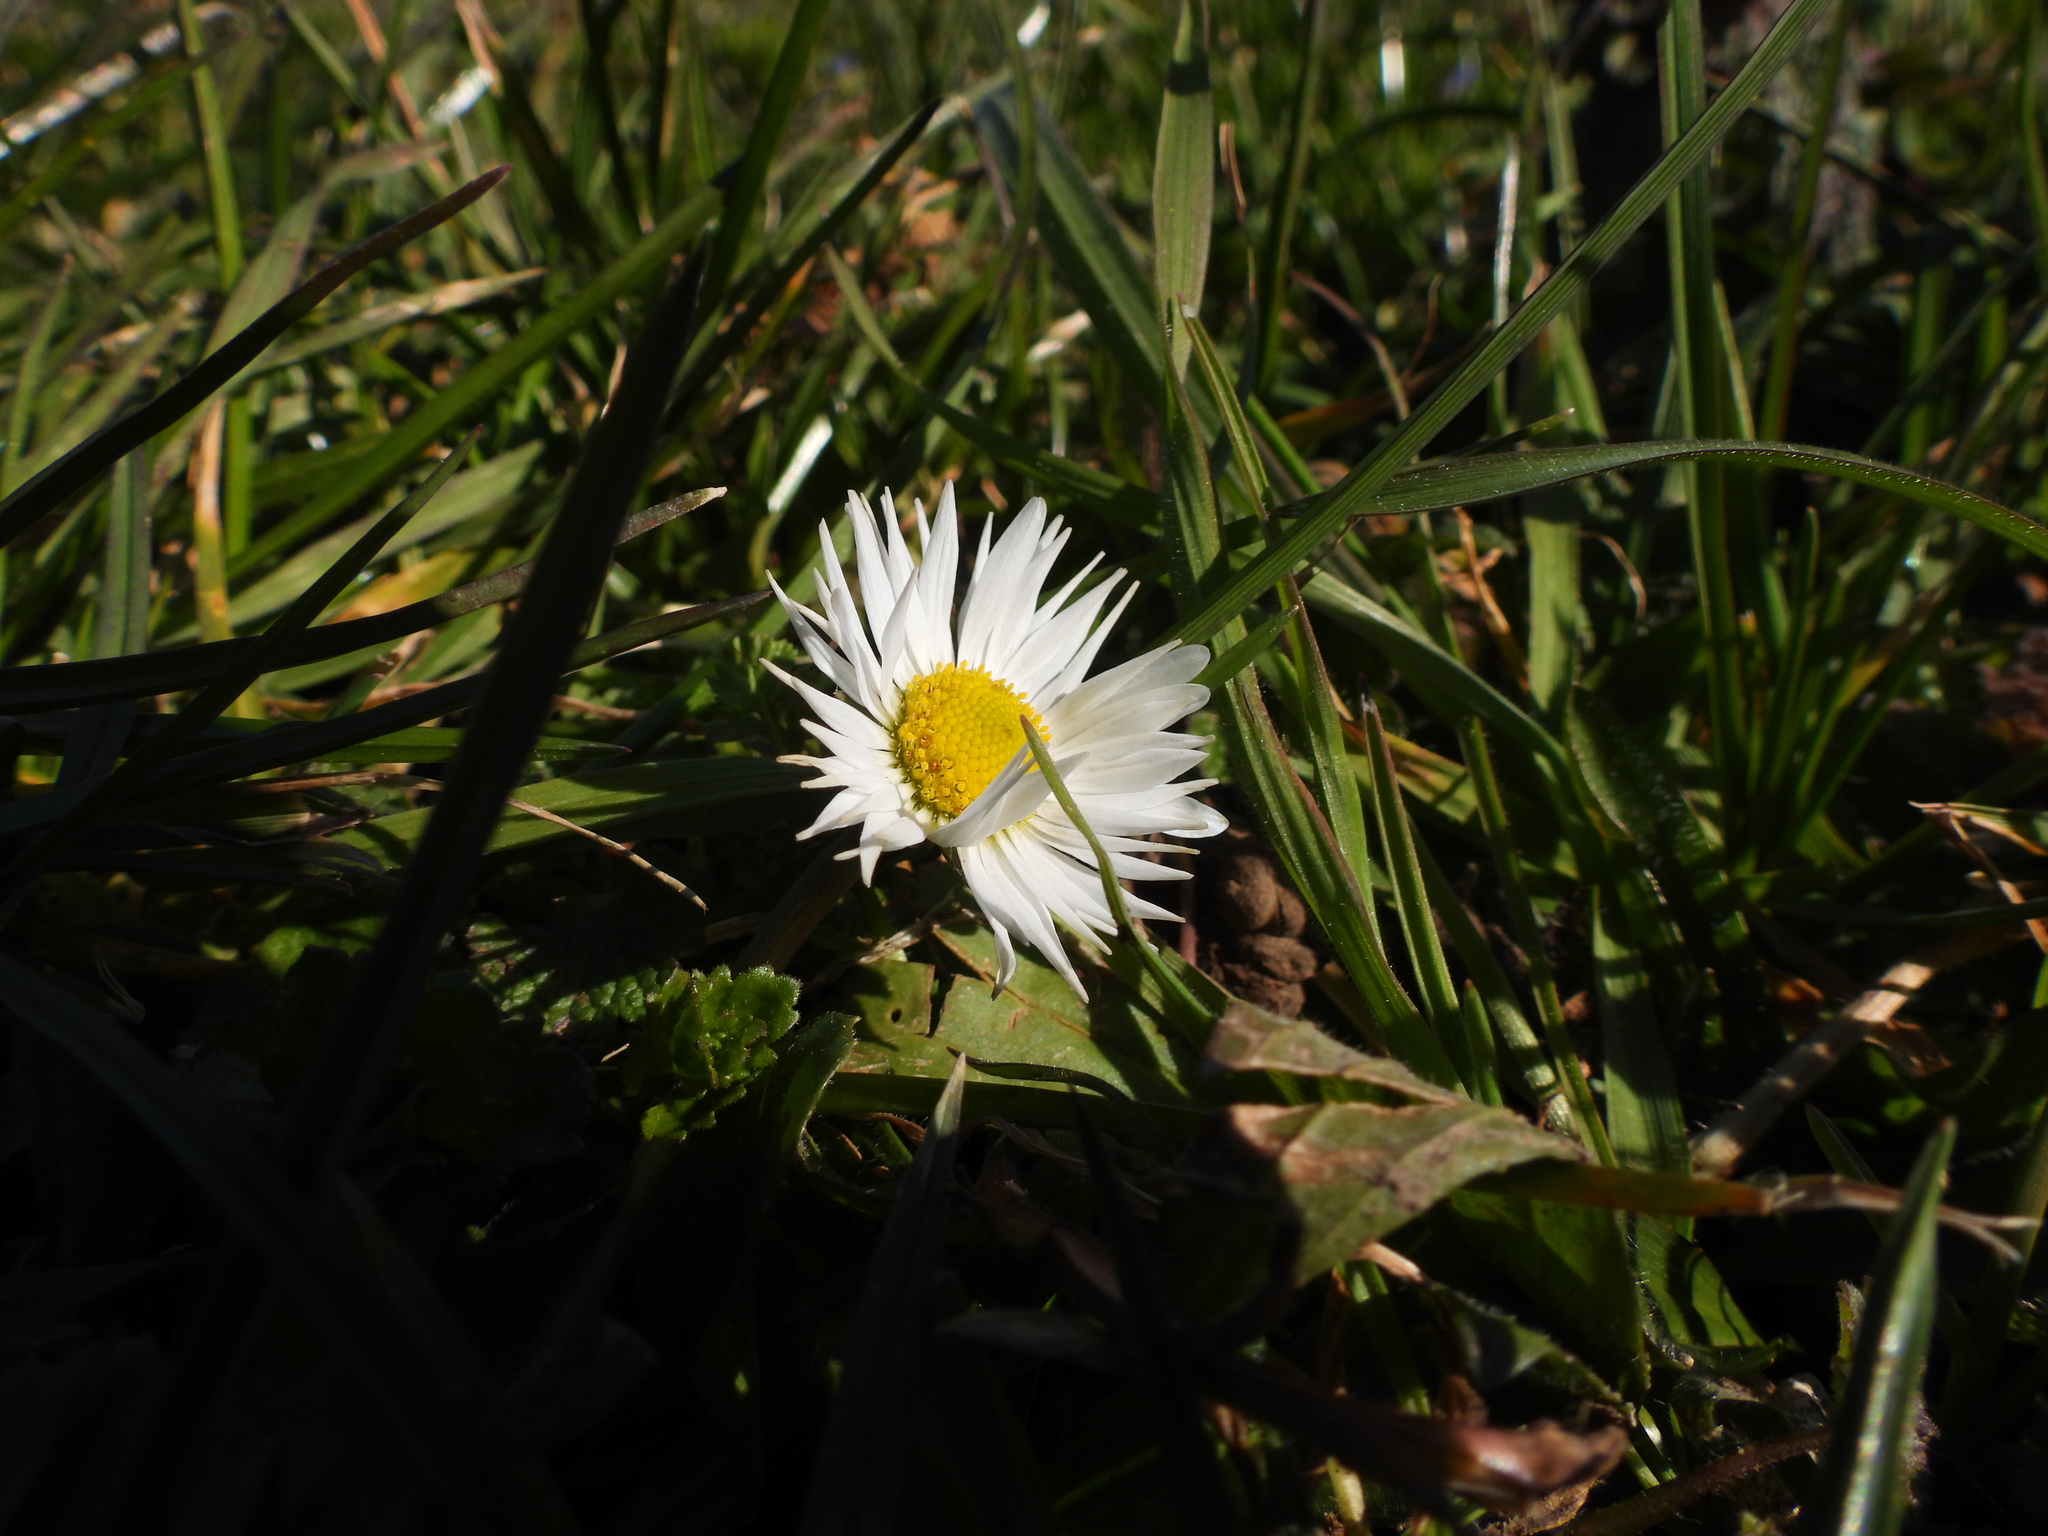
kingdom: Plantae
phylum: Tracheophyta
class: Magnoliopsida
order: Asterales
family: Asteraceae
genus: Bellis
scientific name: Bellis perennis
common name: Lawndaisy
